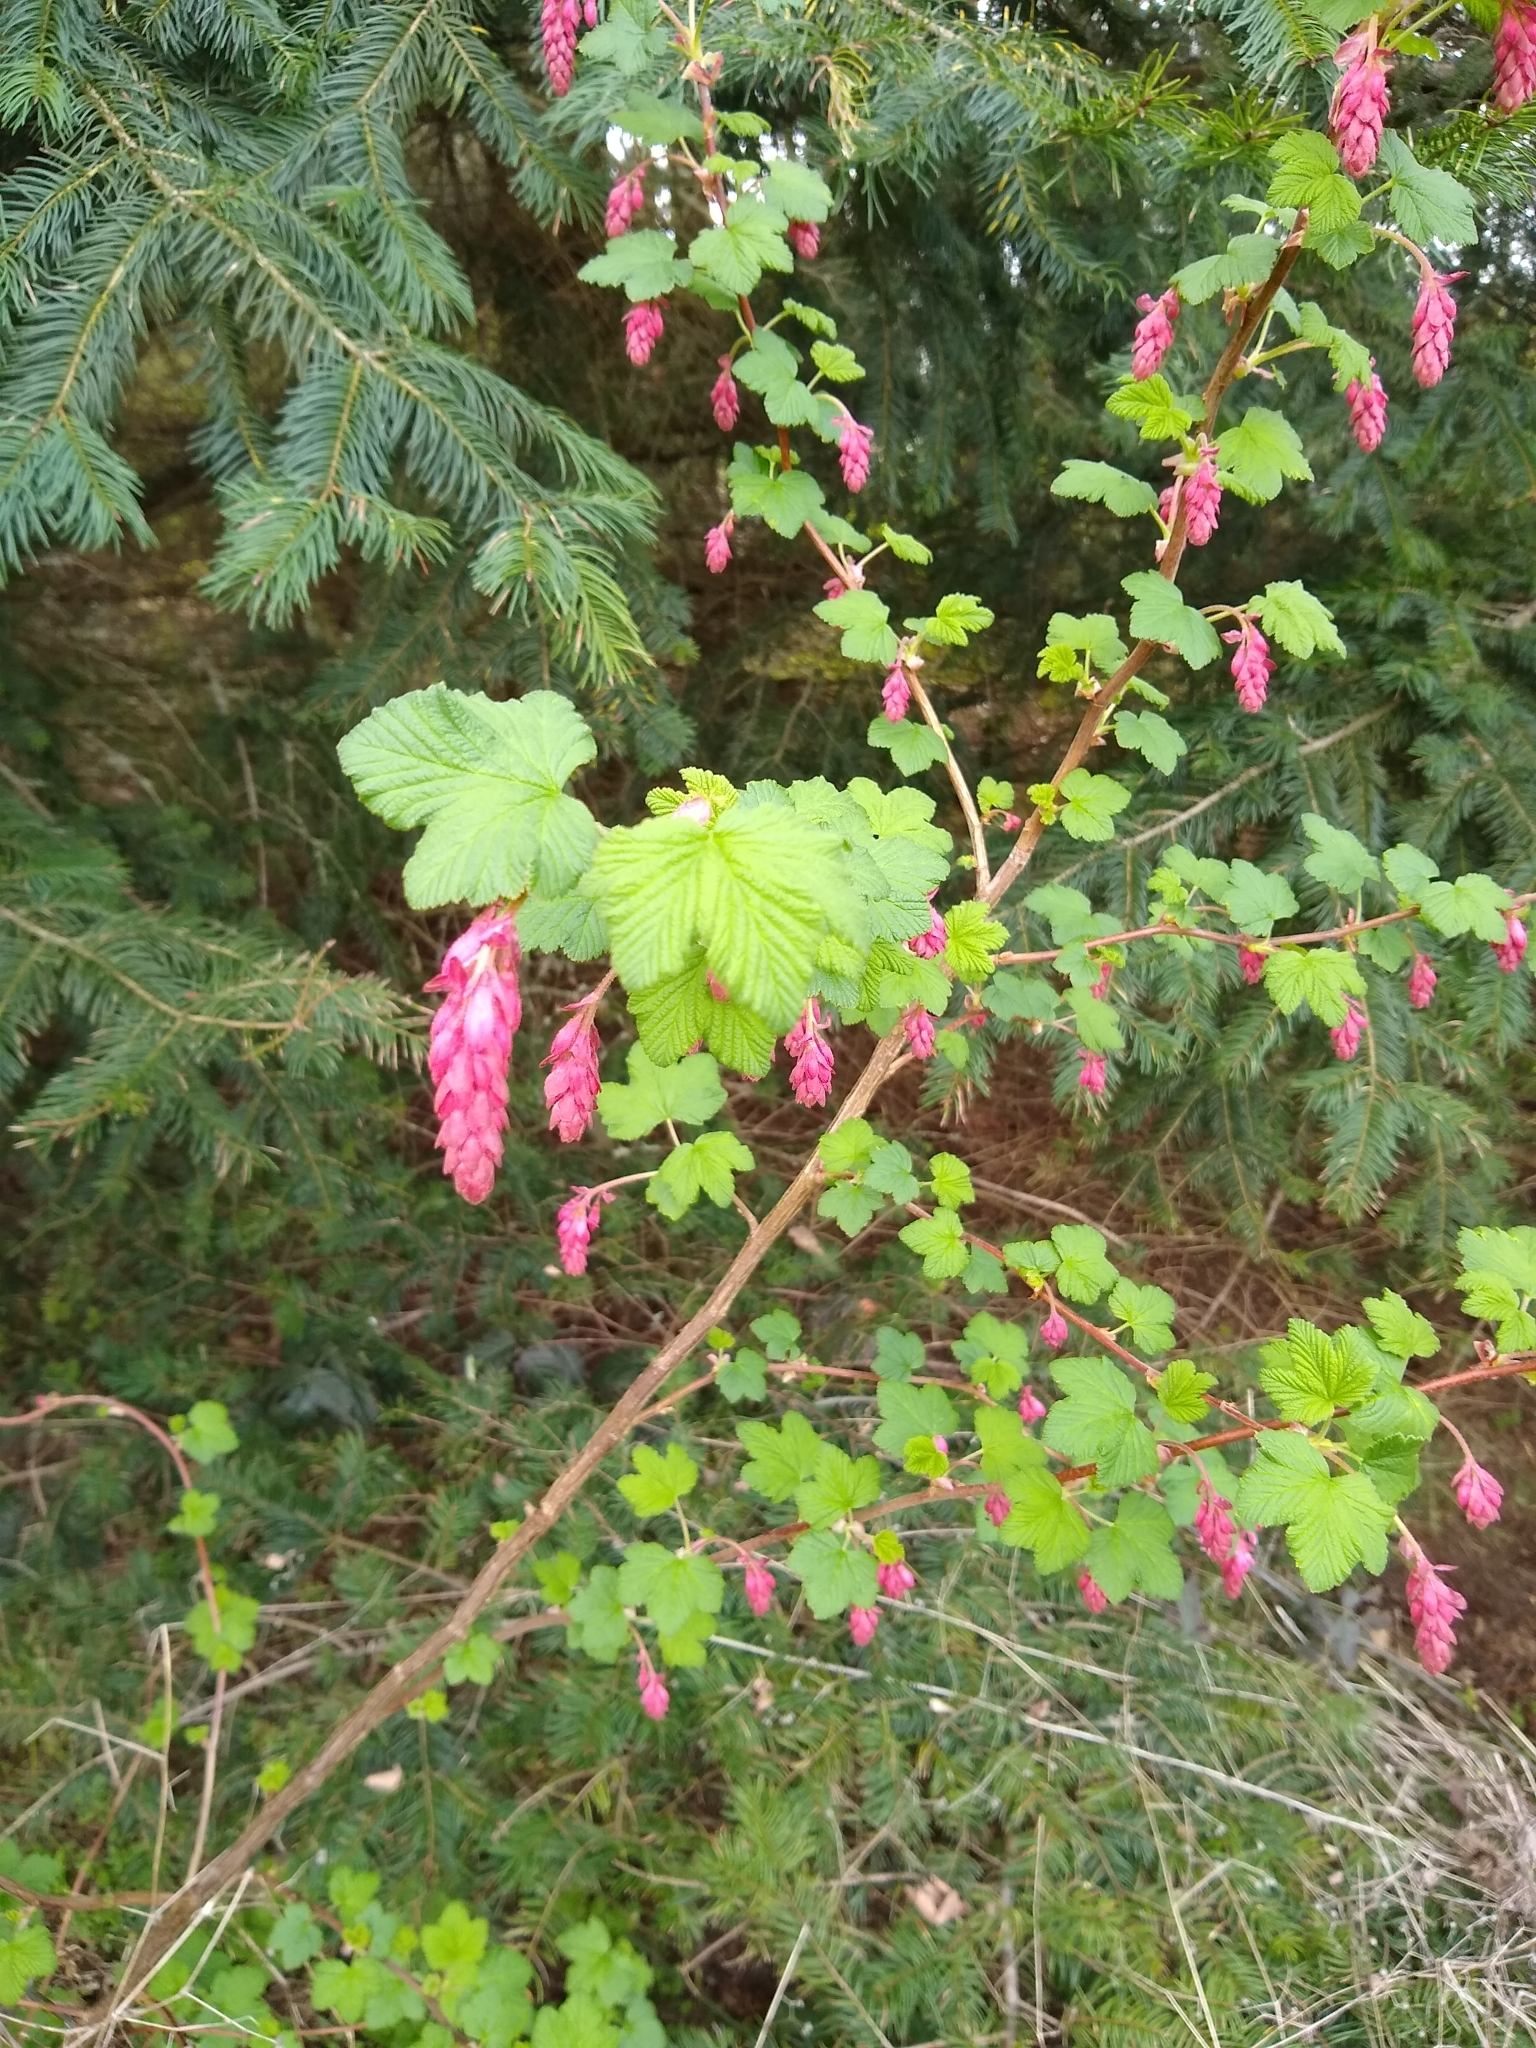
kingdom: Plantae
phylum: Tracheophyta
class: Magnoliopsida
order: Saxifragales
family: Grossulariaceae
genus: Ribes
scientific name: Ribes sanguineum
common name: Flowering currant
